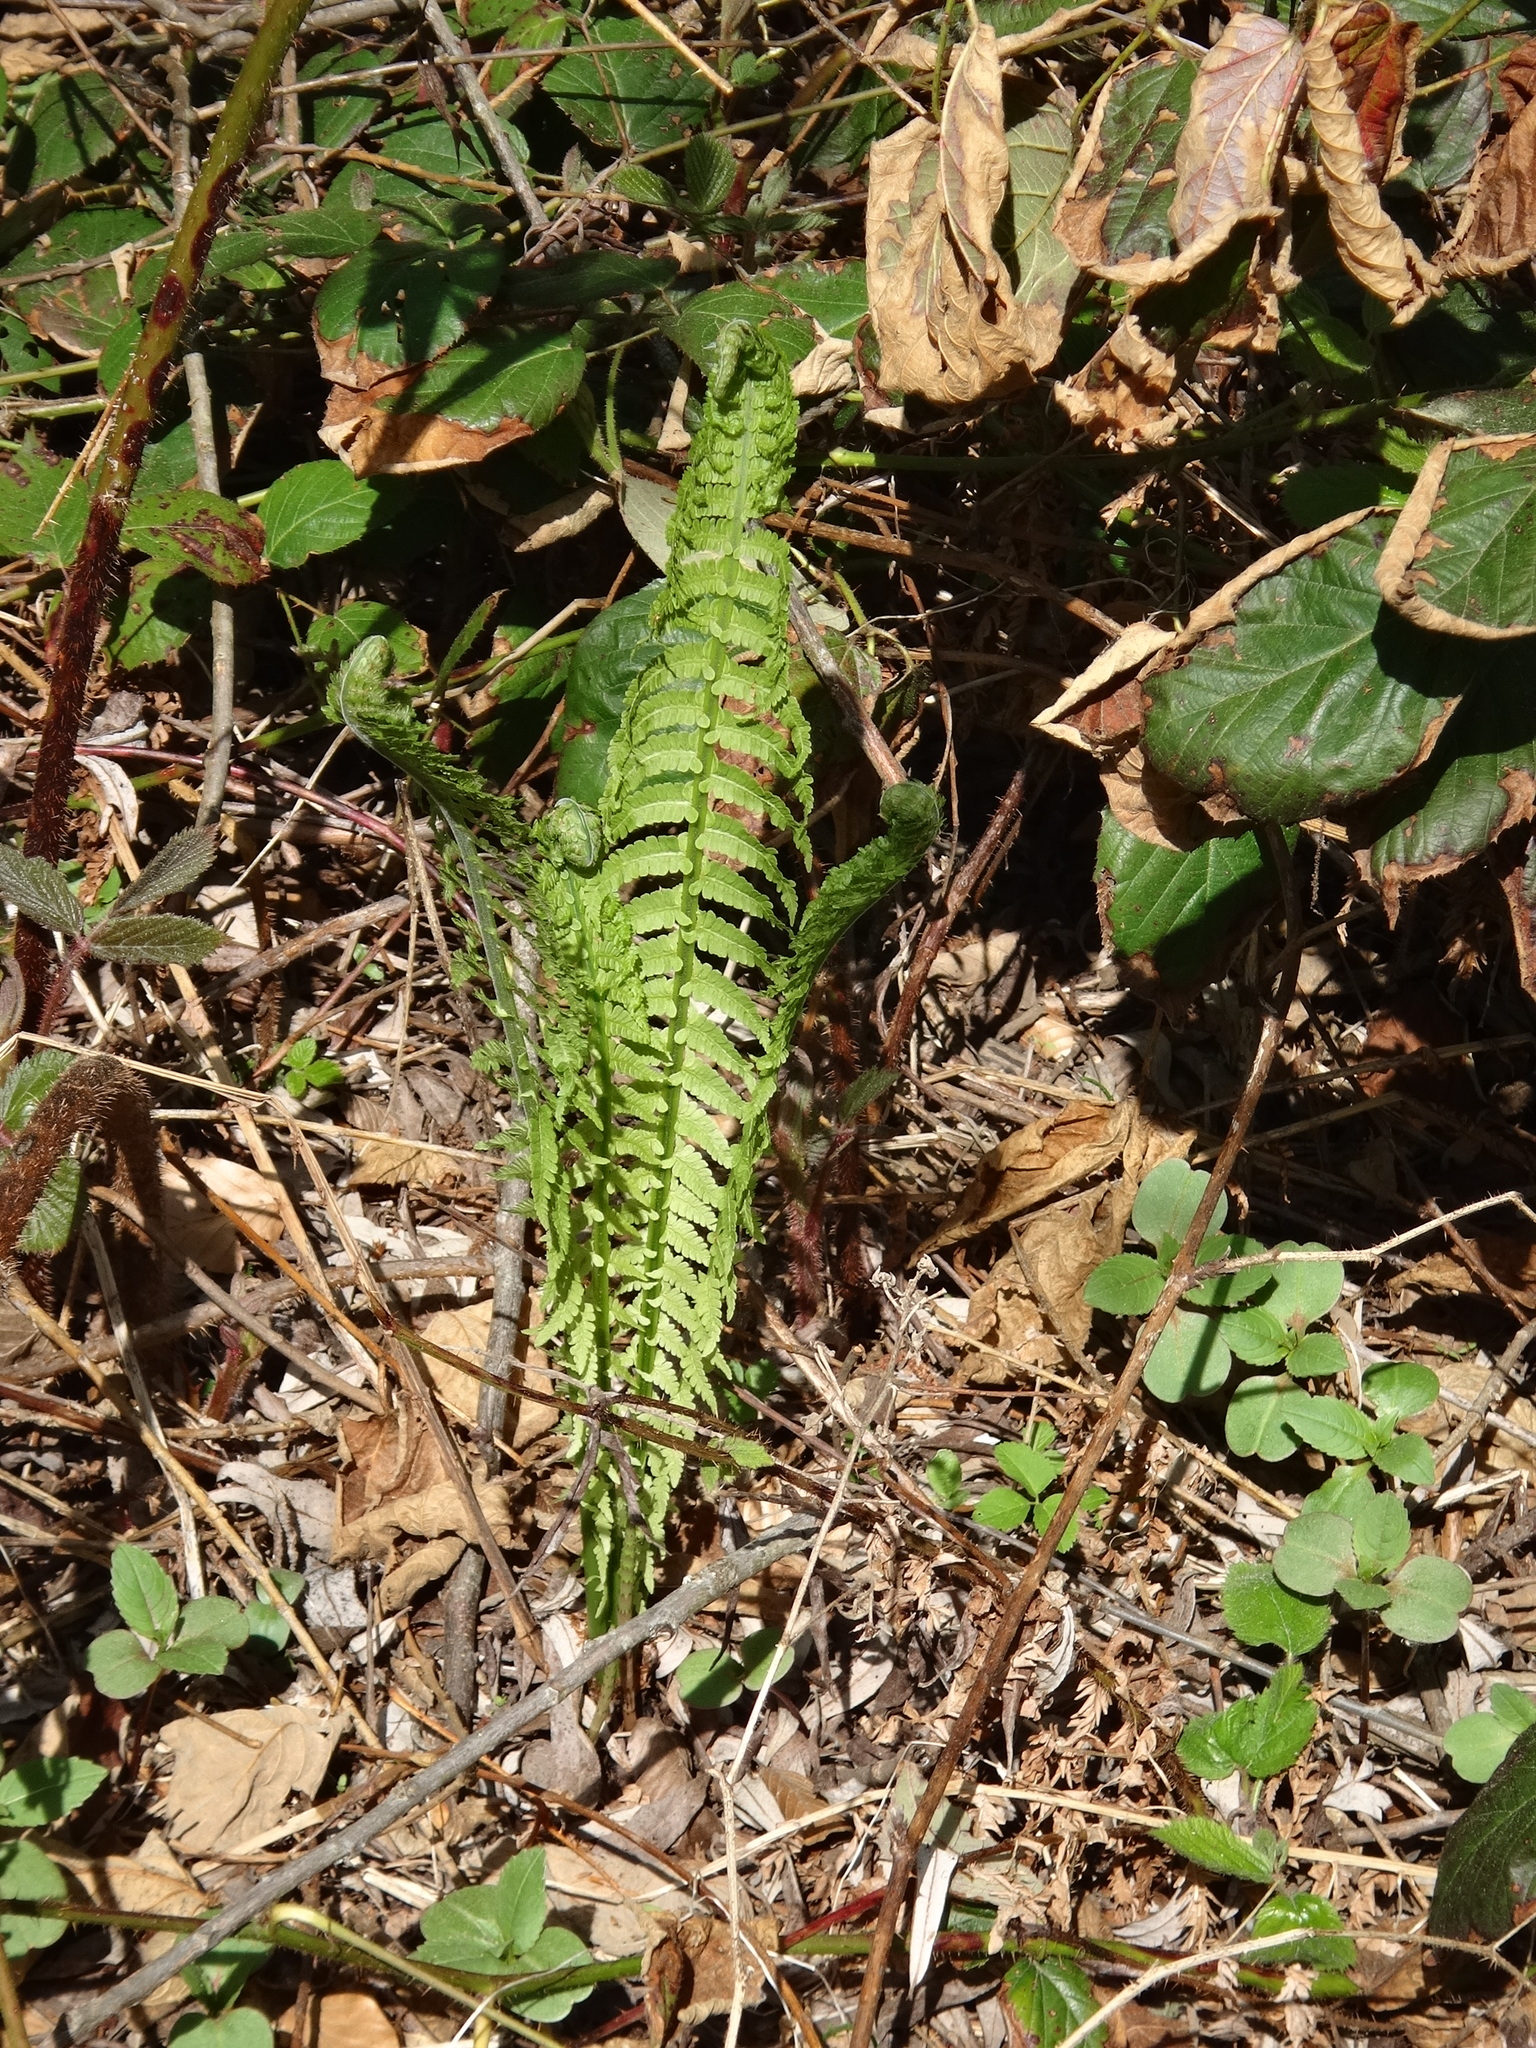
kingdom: Plantae
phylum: Tracheophyta
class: Polypodiopsida
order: Polypodiales
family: Onocleaceae
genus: Matteuccia
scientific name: Matteuccia struthiopteris
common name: Ostrich fern
